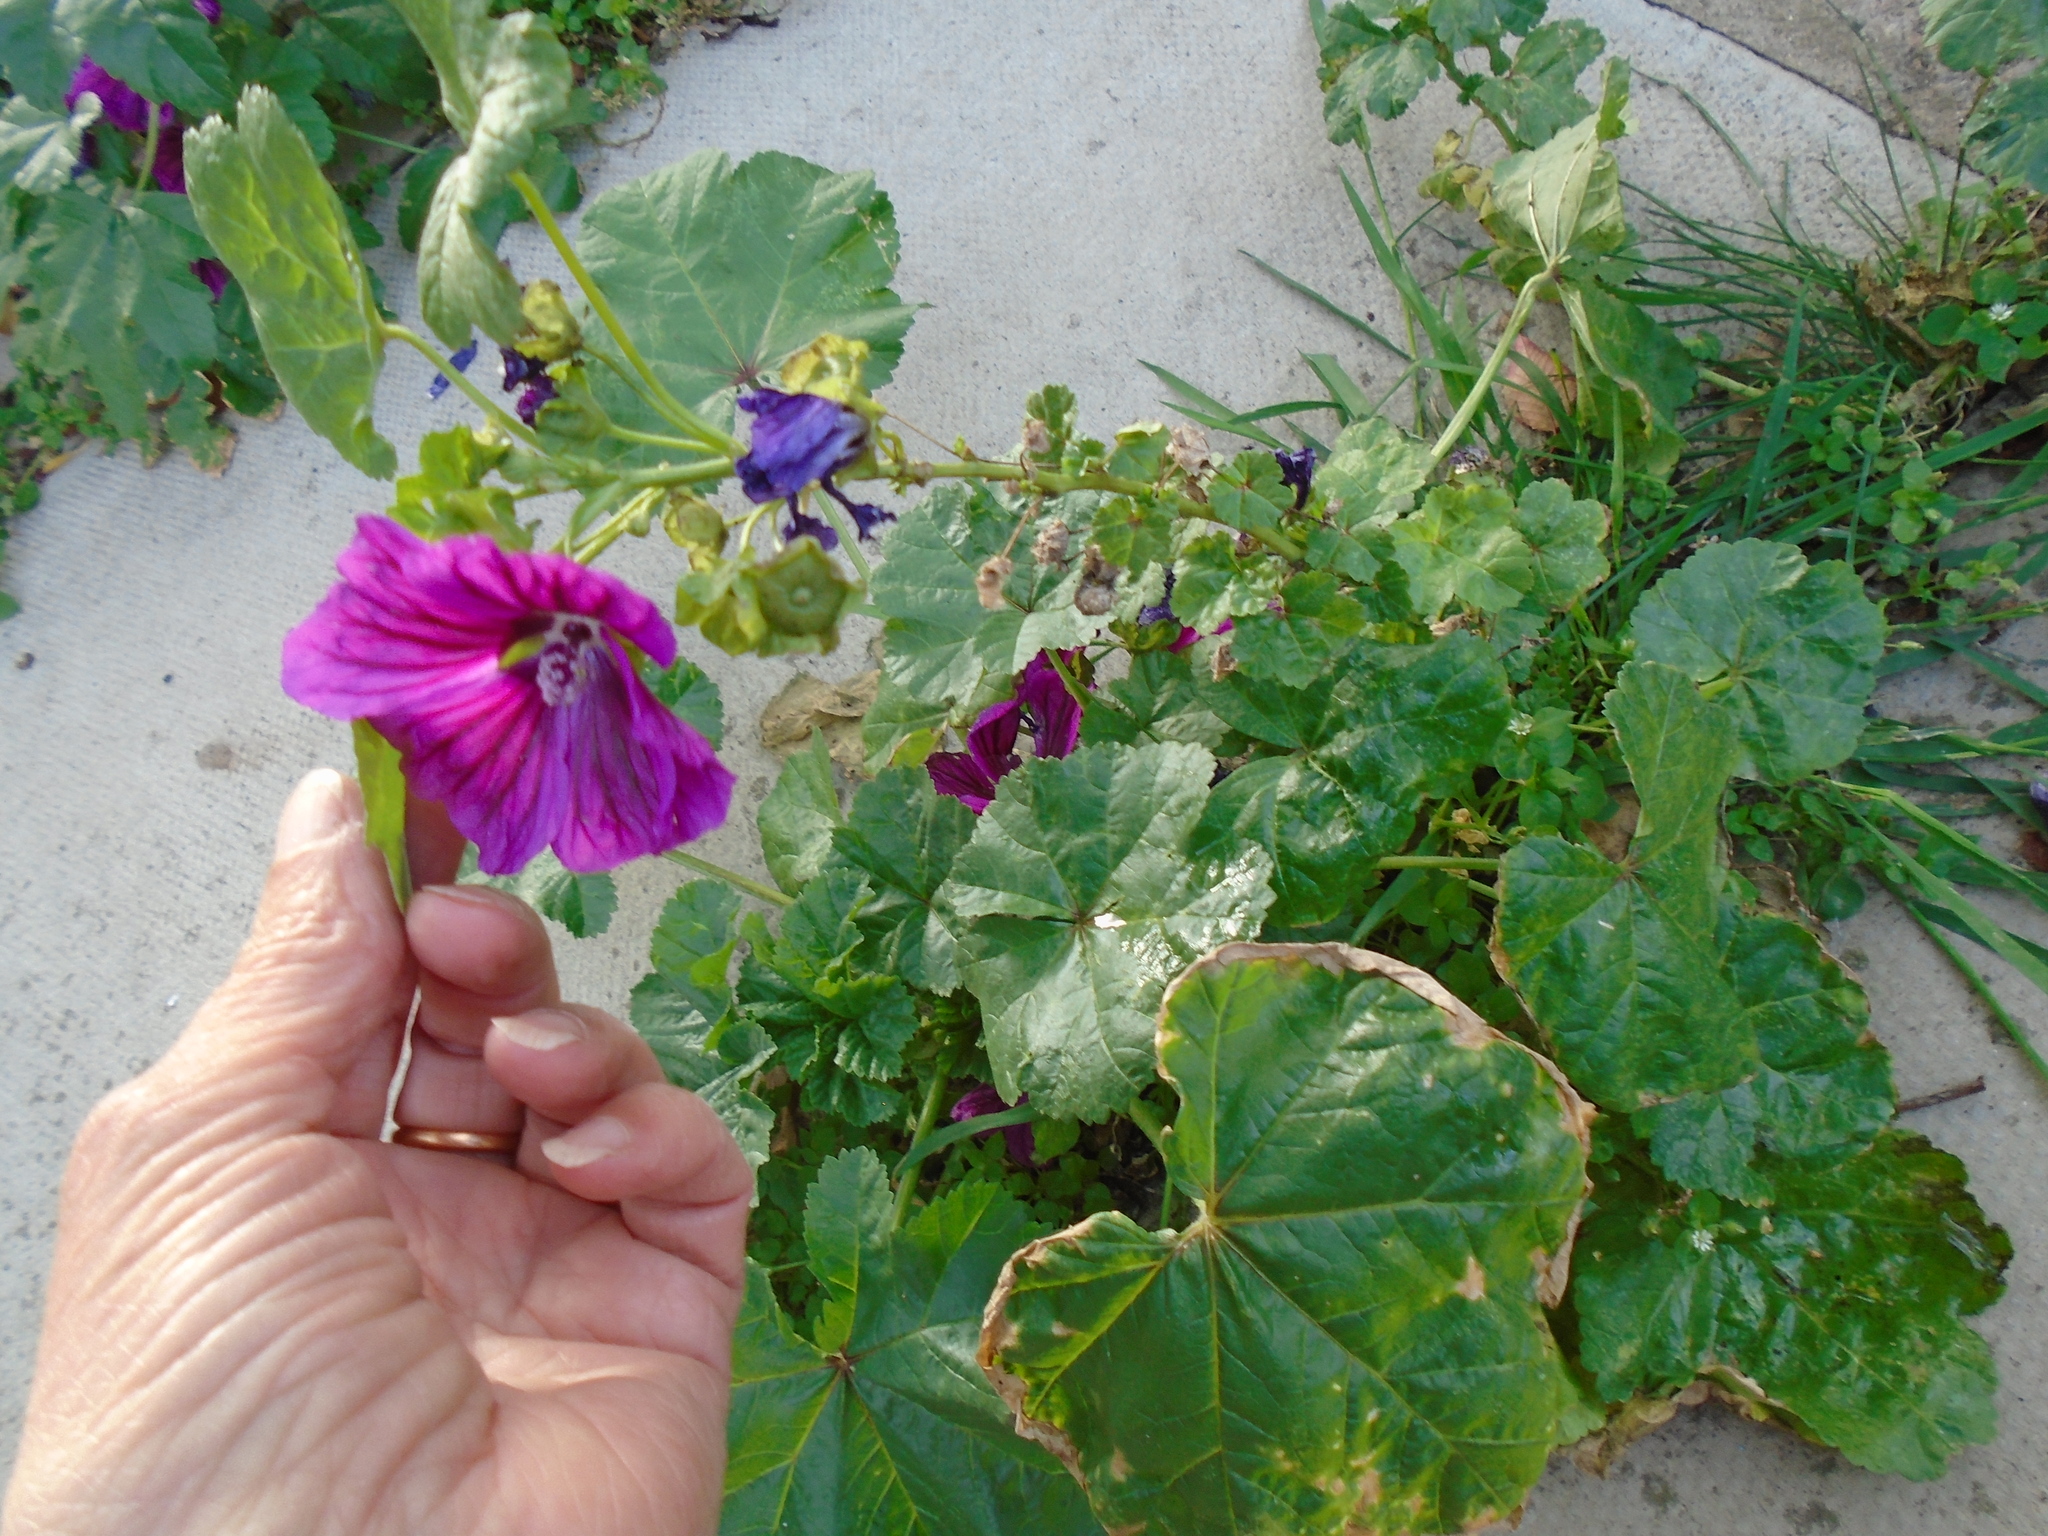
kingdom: Plantae
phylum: Tracheophyta
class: Magnoliopsida
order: Malvales
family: Malvaceae
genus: Malva
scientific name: Malva sylvestris
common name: Common mallow
